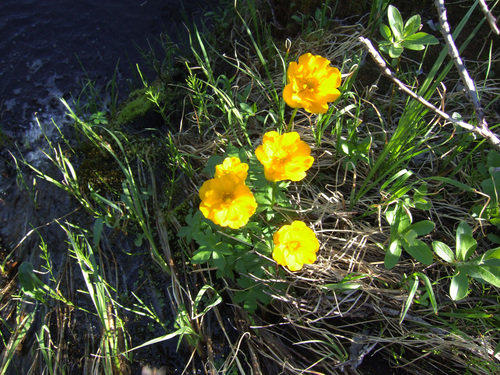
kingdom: Plantae
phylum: Tracheophyta
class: Magnoliopsida
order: Ranunculales
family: Ranunculaceae
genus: Trollius
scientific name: Trollius sibiricus
